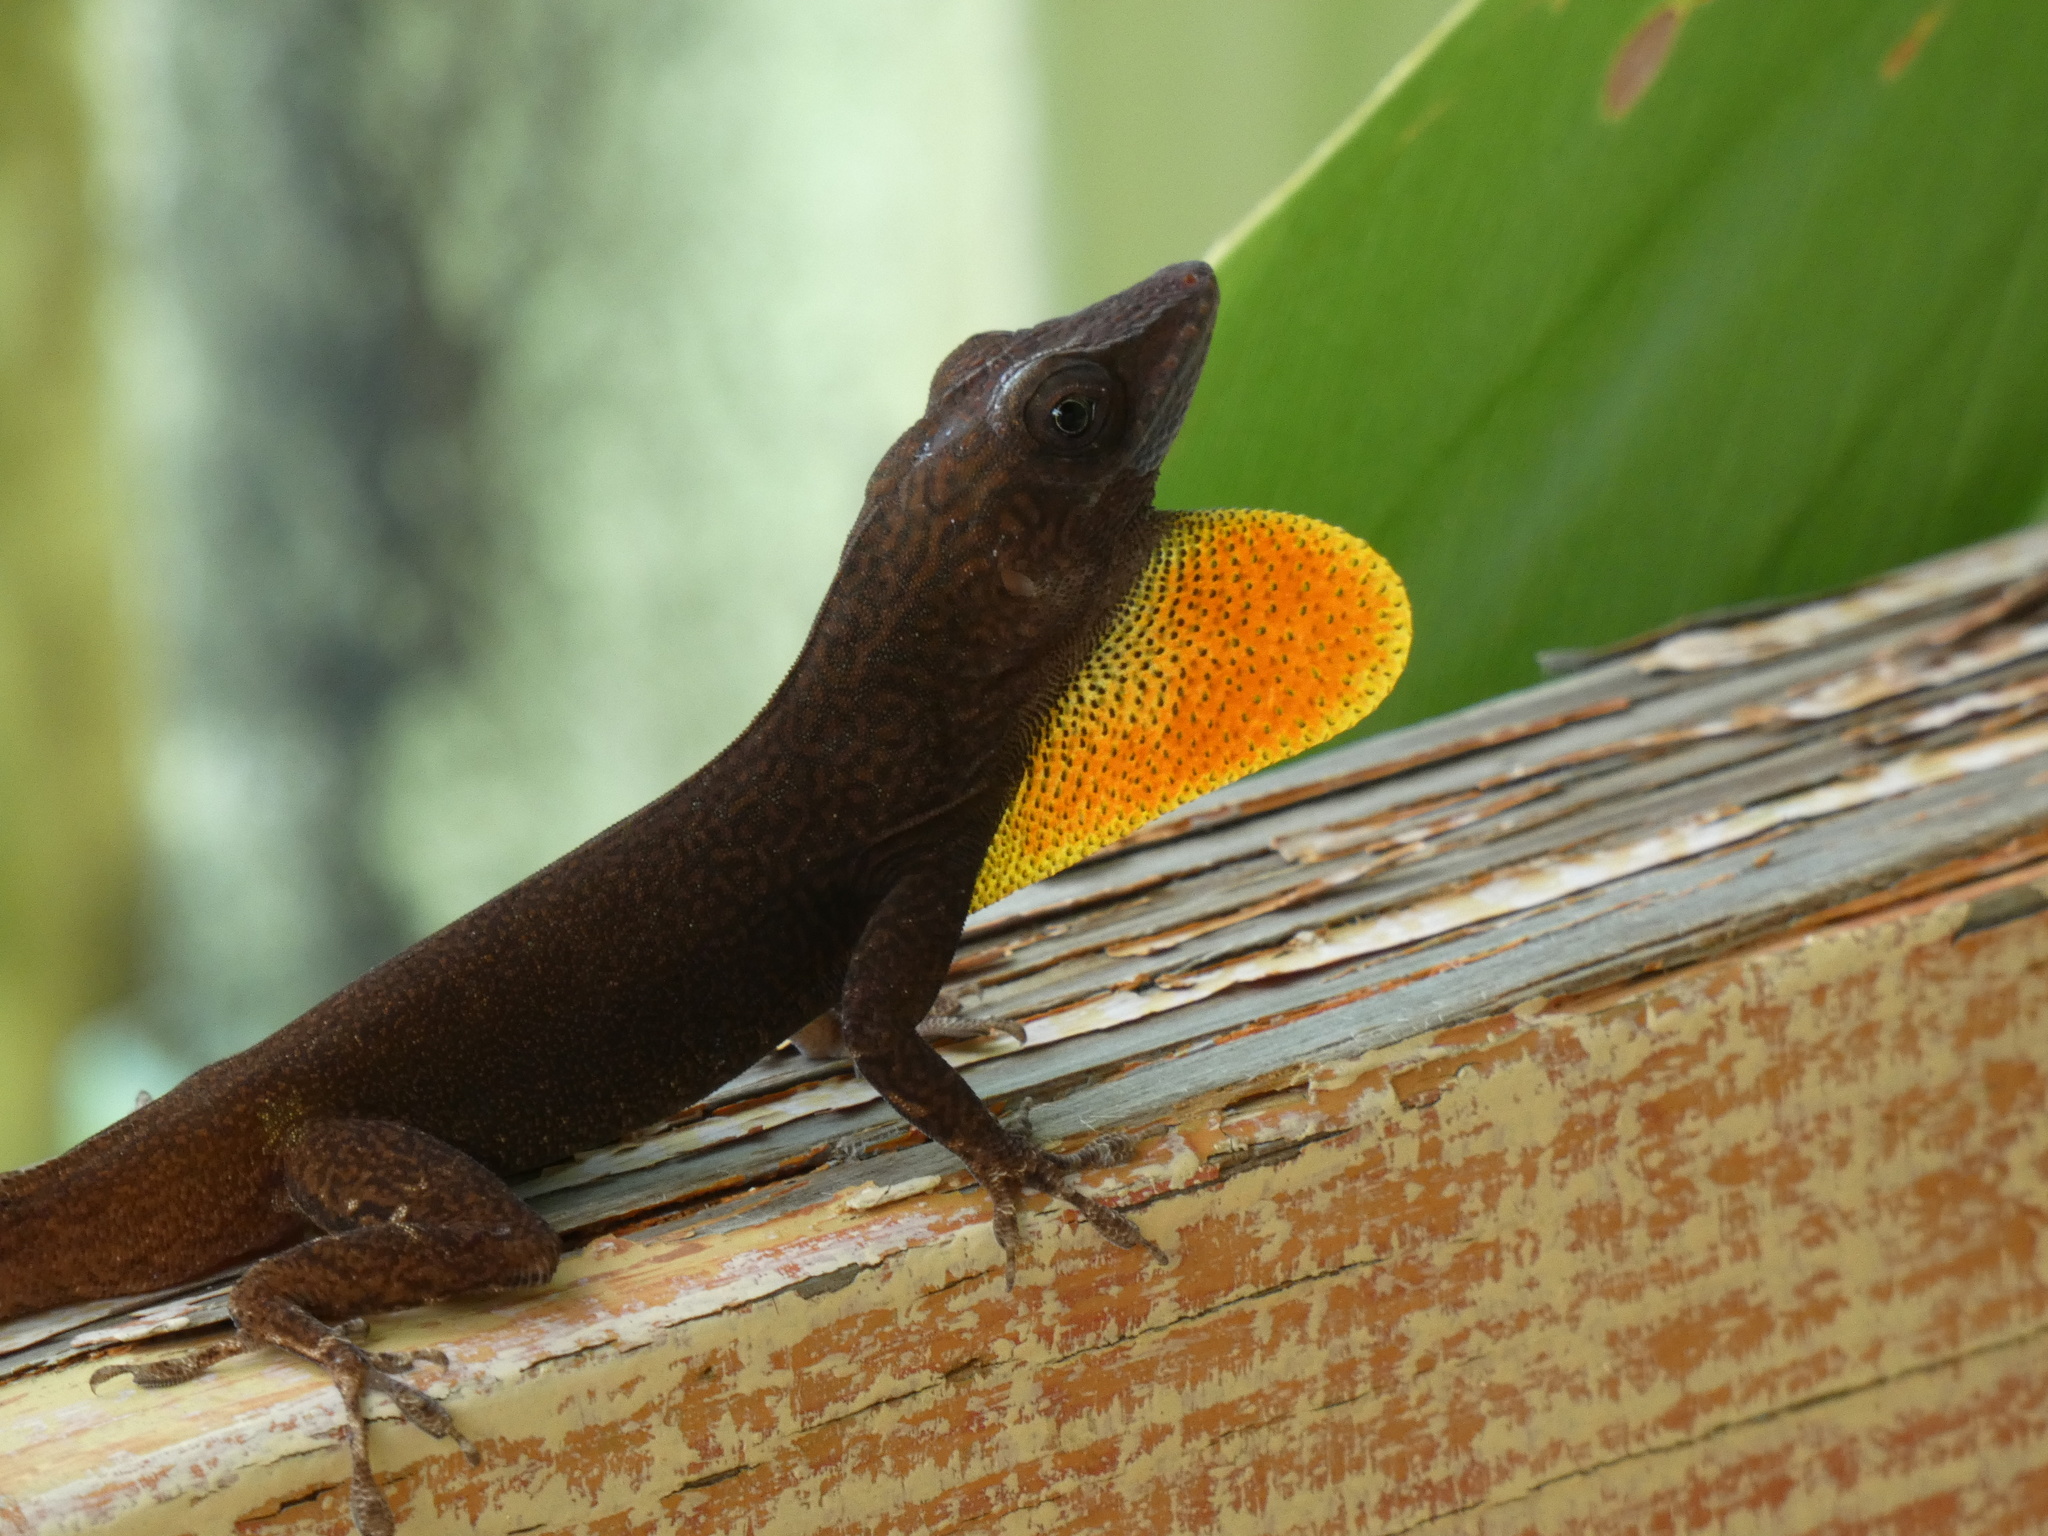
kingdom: Animalia
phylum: Chordata
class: Squamata
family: Dactyloidae
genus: Anolis
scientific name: Anolis grahami
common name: Graham's anole
